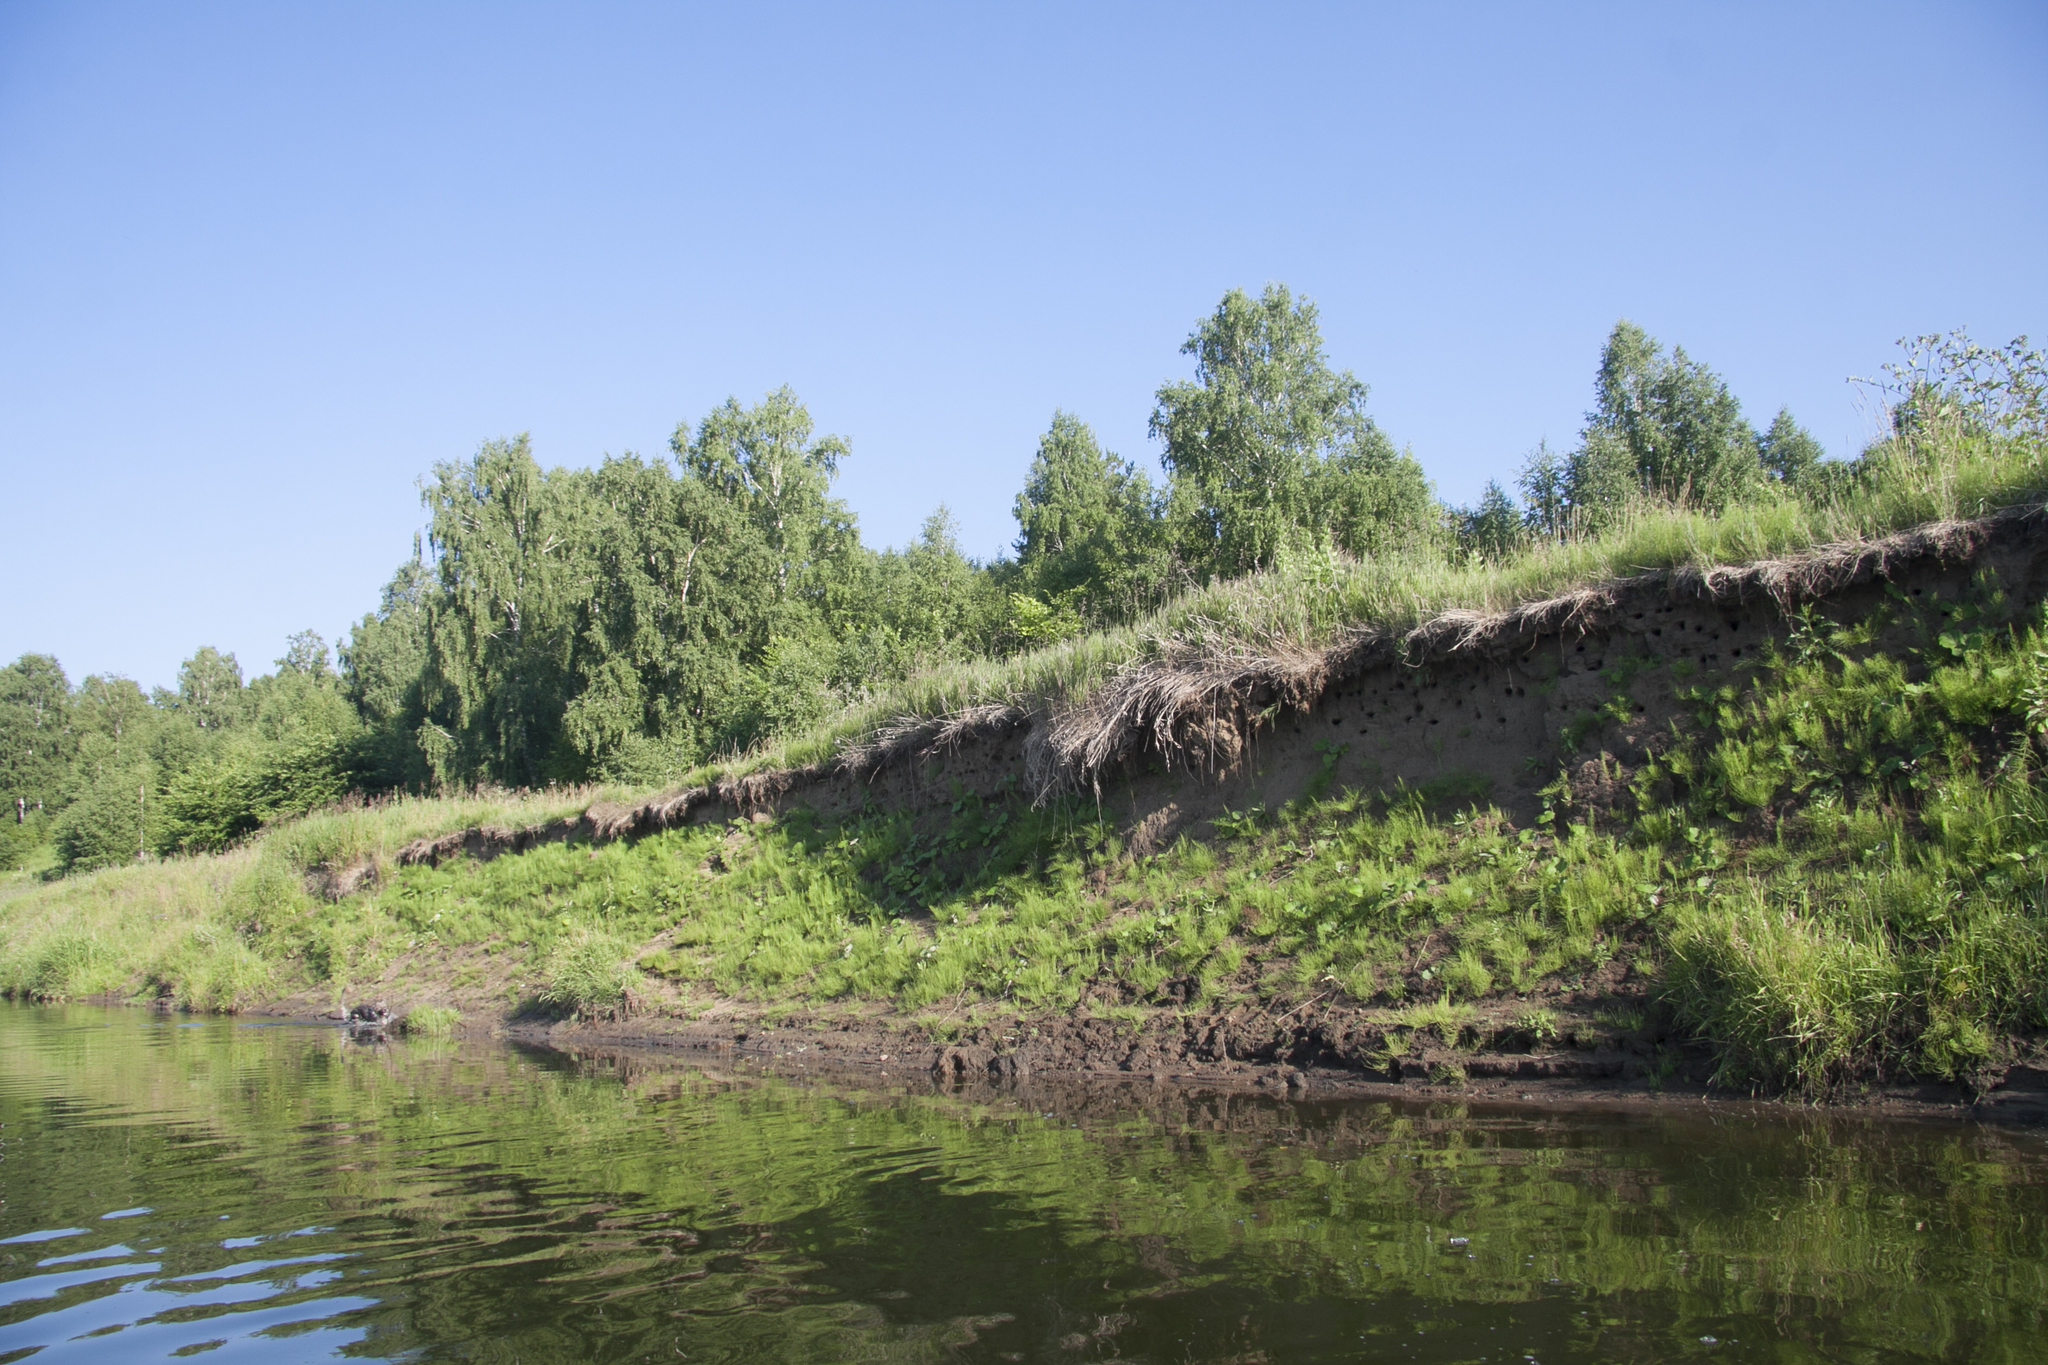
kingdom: Animalia
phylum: Chordata
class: Aves
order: Passeriformes
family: Hirundinidae
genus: Riparia
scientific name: Riparia riparia
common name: Sand martin
